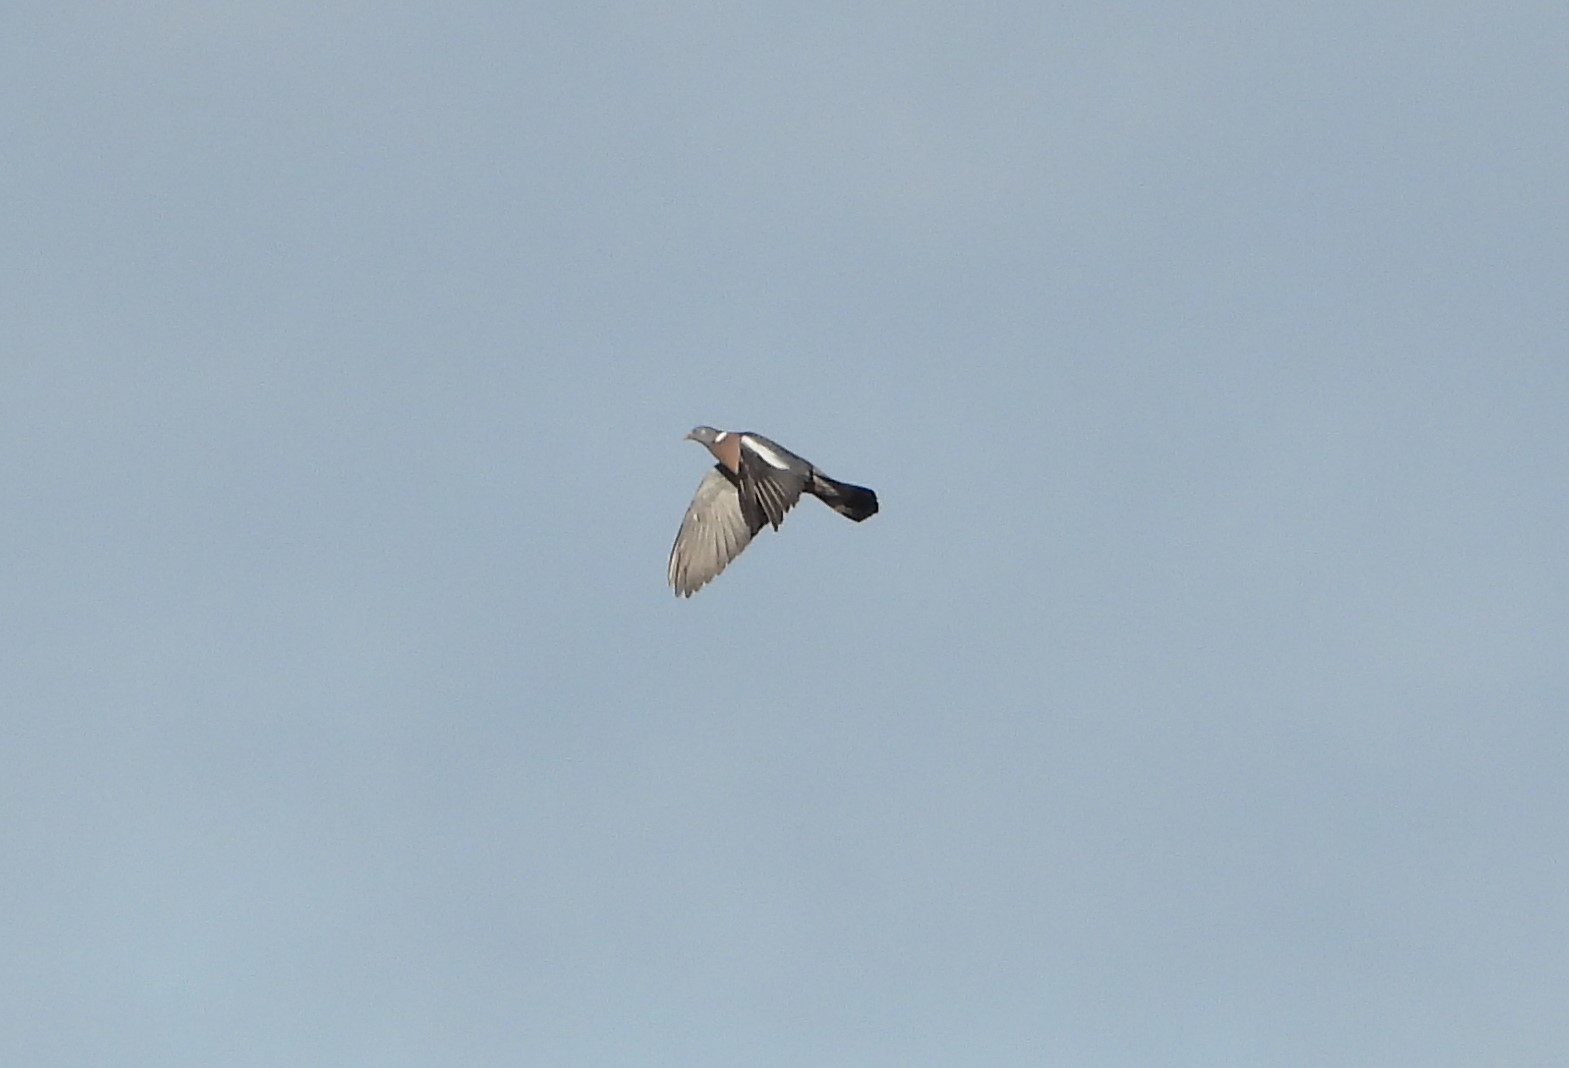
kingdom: Animalia
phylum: Chordata
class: Aves
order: Columbiformes
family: Columbidae
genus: Columba
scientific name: Columba palumbus
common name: Common wood pigeon
